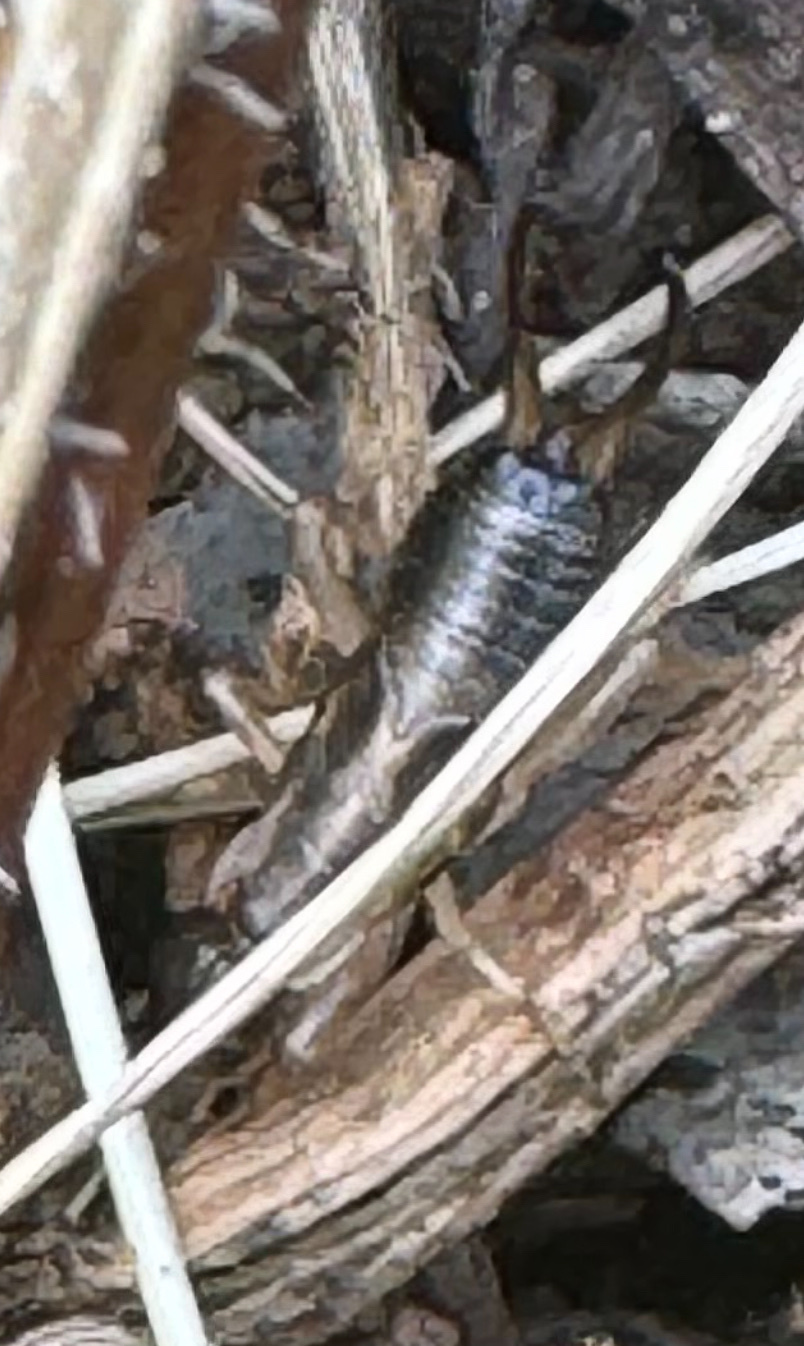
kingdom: Animalia
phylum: Arthropoda
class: Insecta
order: Dermaptera
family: Forficulidae
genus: Forficula
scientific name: Forficula dentata
